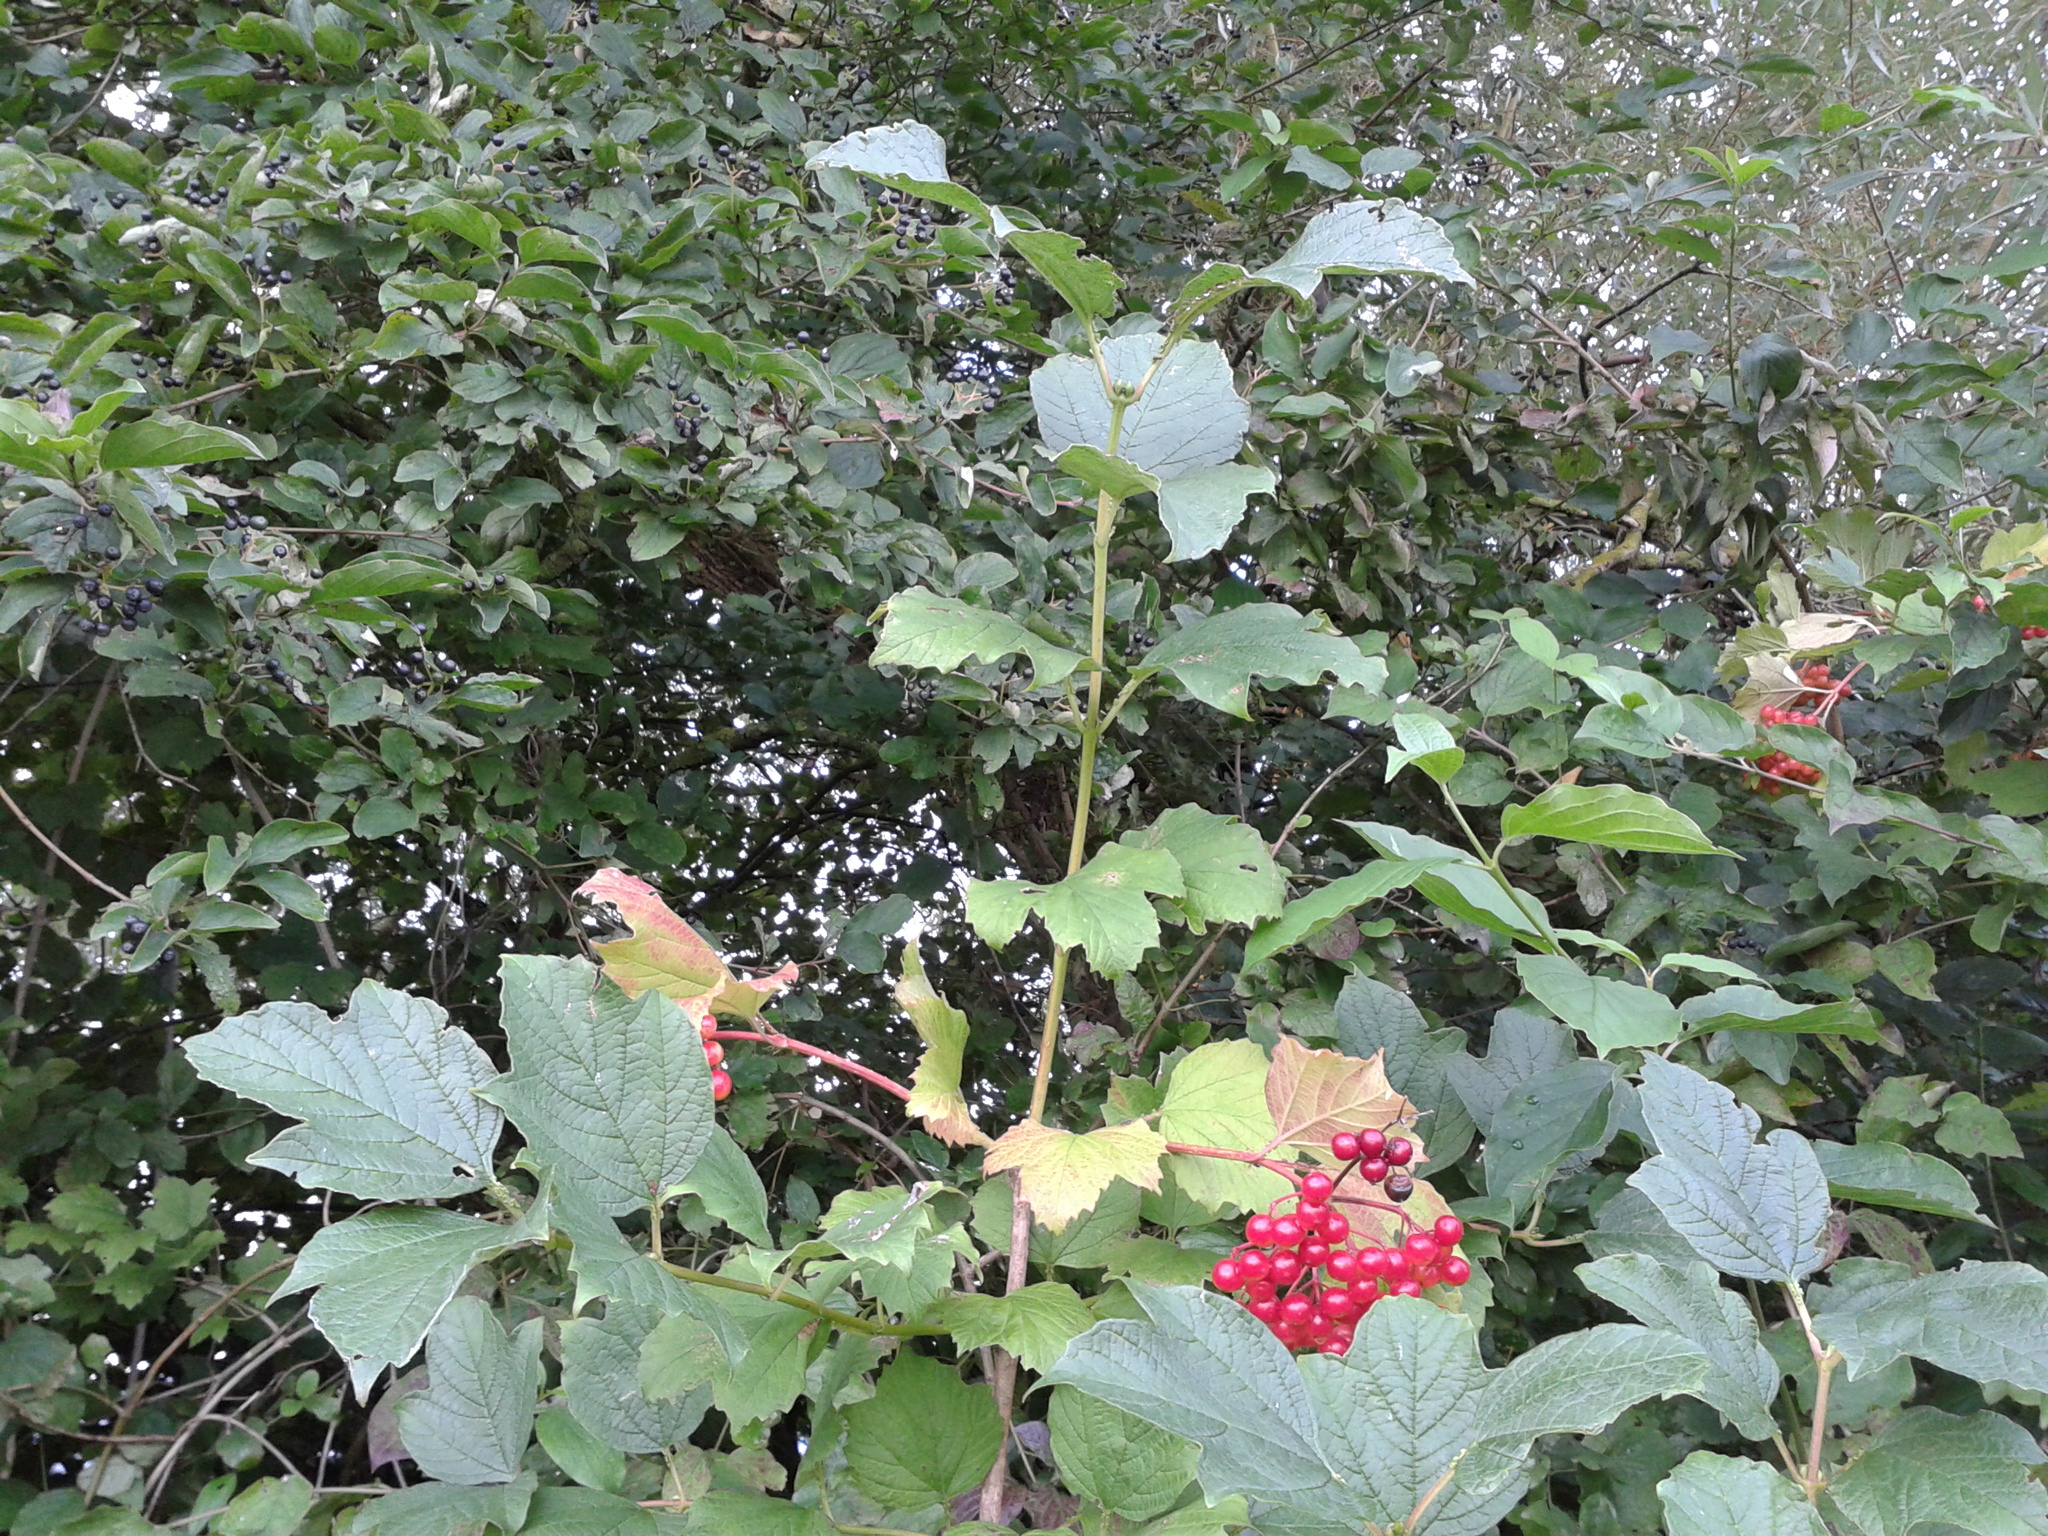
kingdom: Plantae
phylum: Tracheophyta
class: Magnoliopsida
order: Dipsacales
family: Viburnaceae
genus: Viburnum
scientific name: Viburnum opulus
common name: Guelder-rose
